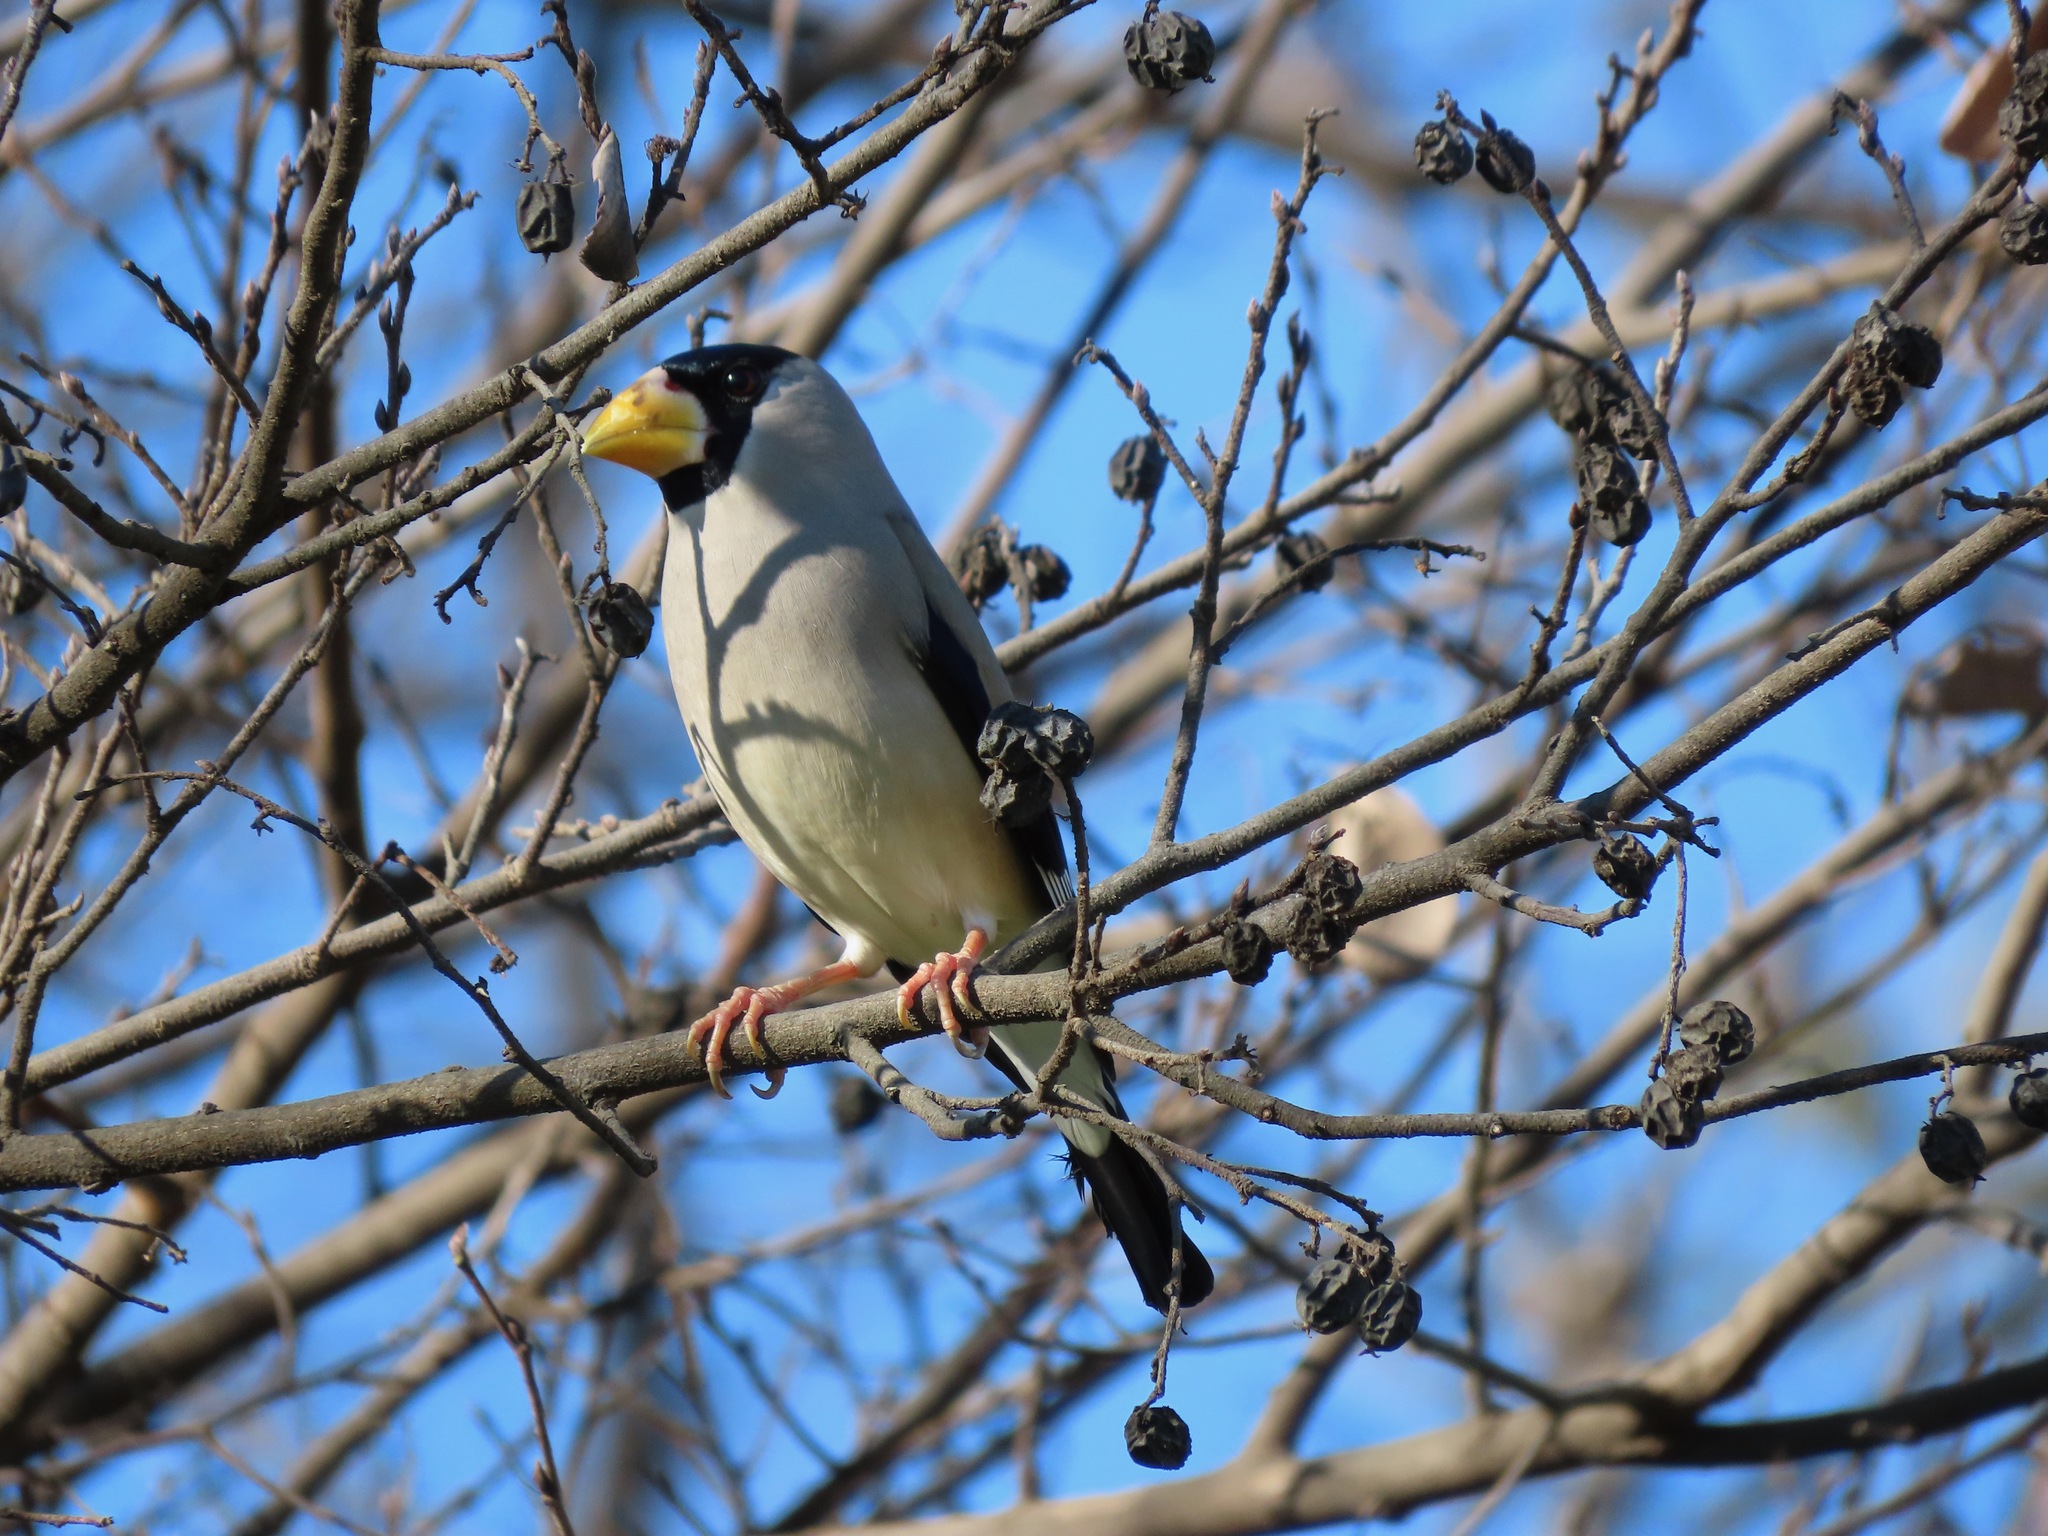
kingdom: Animalia
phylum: Chordata
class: Aves
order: Passeriformes
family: Fringillidae
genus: Eophona
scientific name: Eophona personata
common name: Japanese grosbeak
